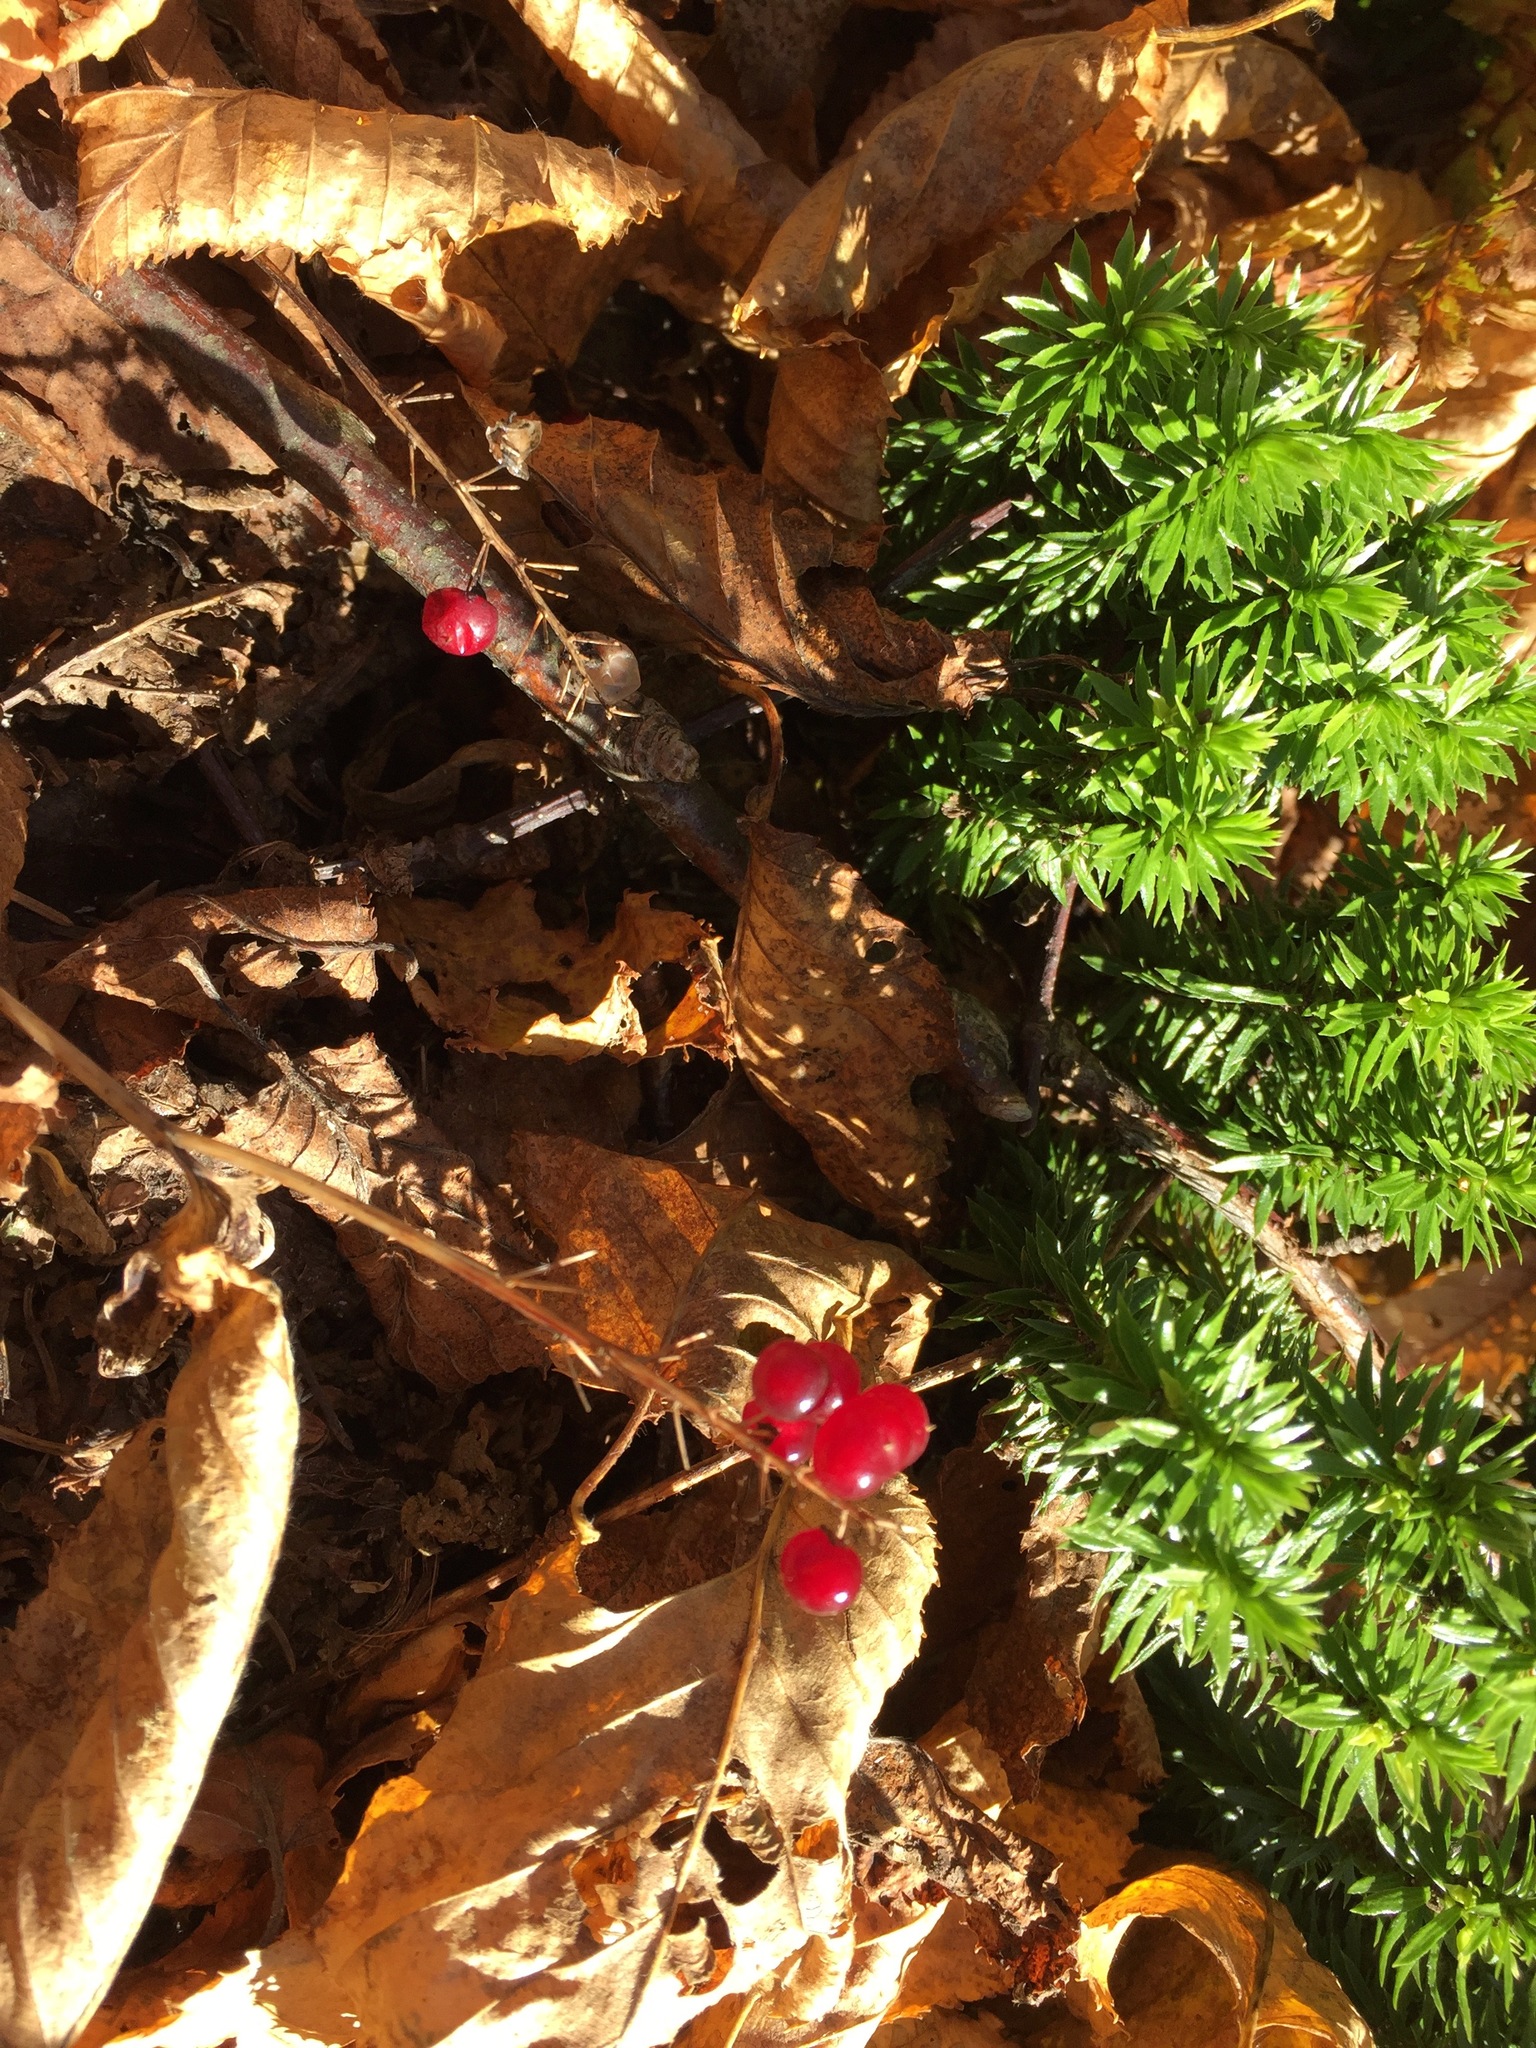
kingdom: Plantae
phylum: Tracheophyta
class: Liliopsida
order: Asparagales
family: Asparagaceae
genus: Maianthemum
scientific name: Maianthemum canadense
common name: False lily-of-the-valley
